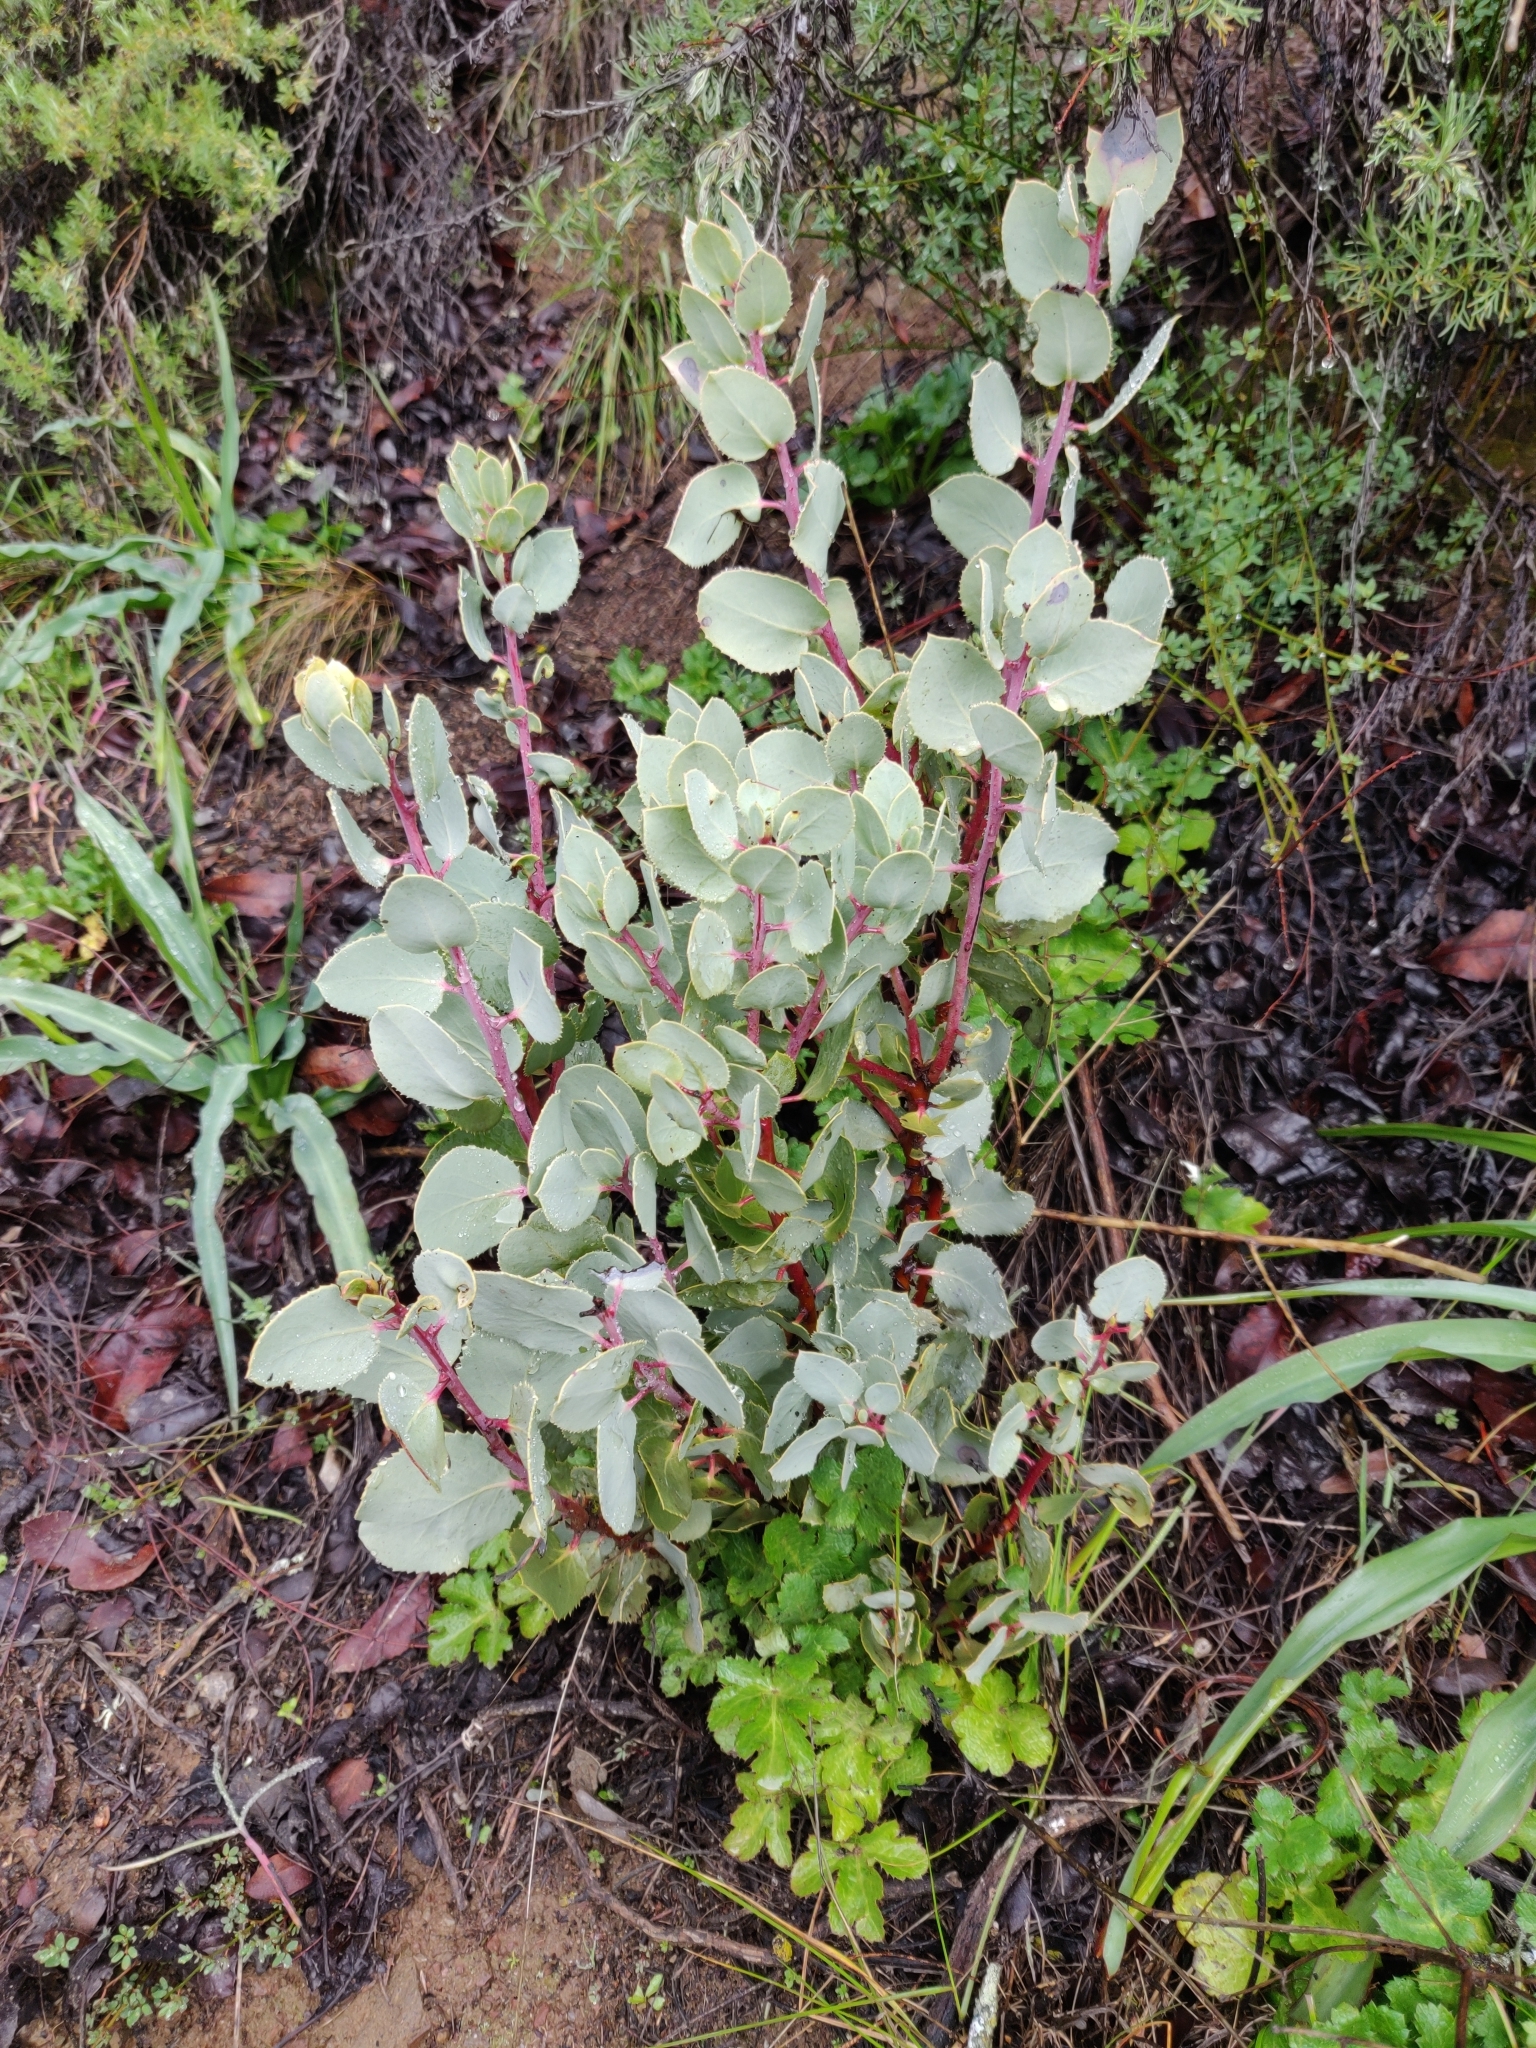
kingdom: Plantae
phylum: Tracheophyta
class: Magnoliopsida
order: Ericales
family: Ericaceae
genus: Arctostaphylos
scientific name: Arctostaphylos glauca
